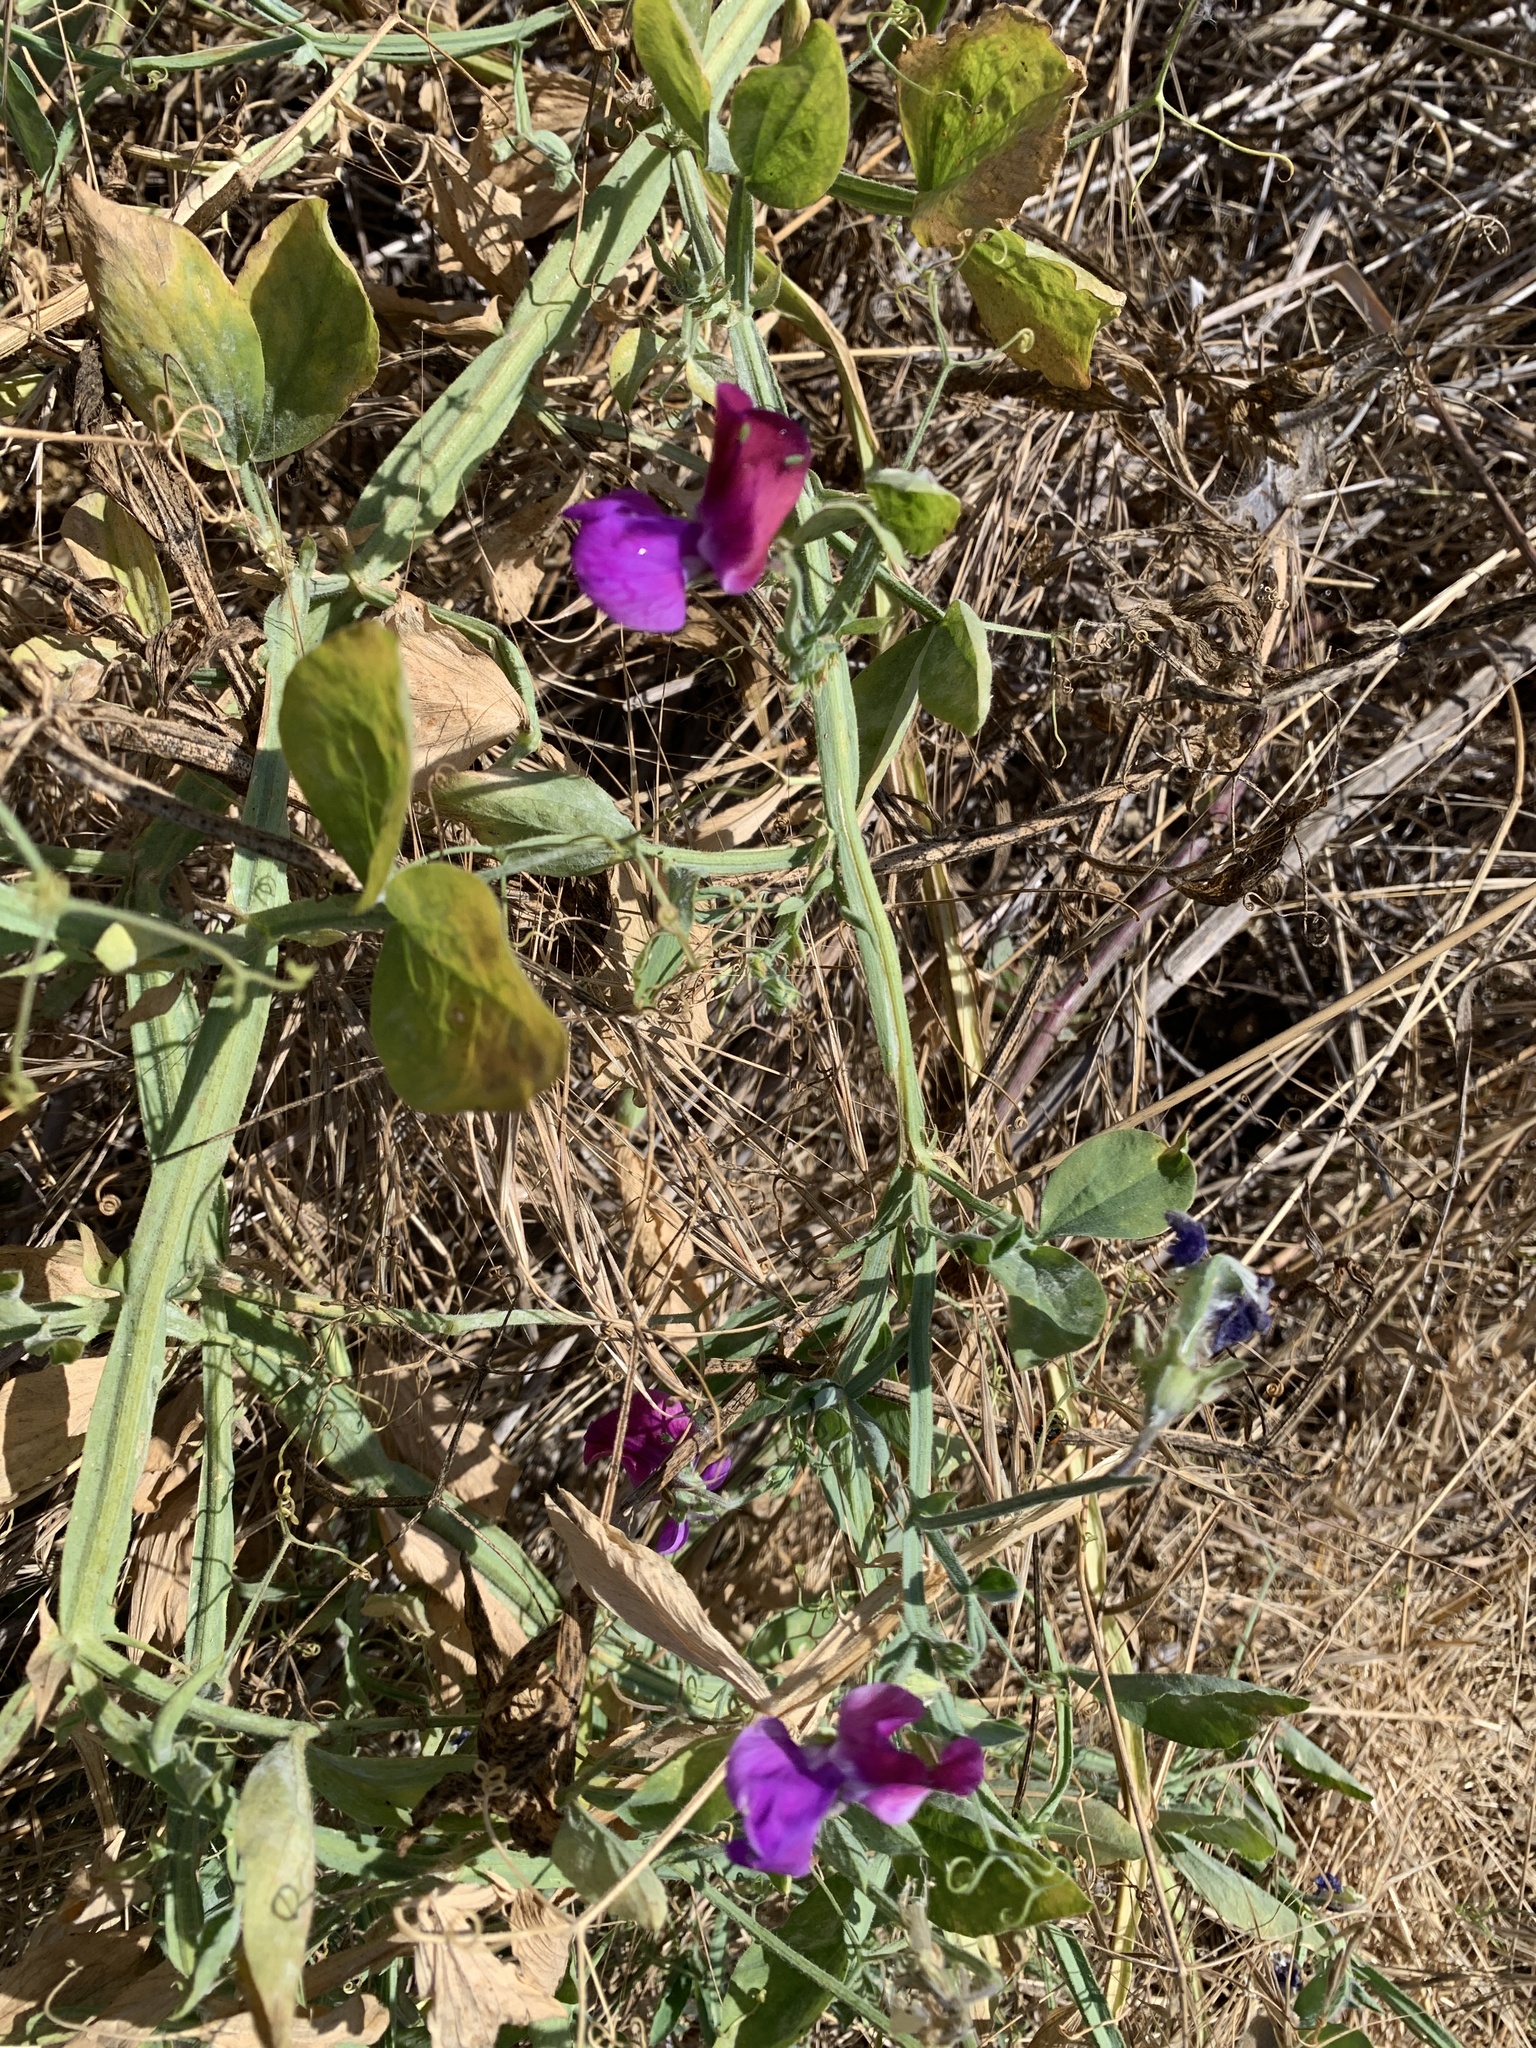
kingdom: Plantae
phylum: Tracheophyta
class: Magnoliopsida
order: Fabales
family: Fabaceae
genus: Lathyrus
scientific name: Lathyrus odoratus
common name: Sweet pea
